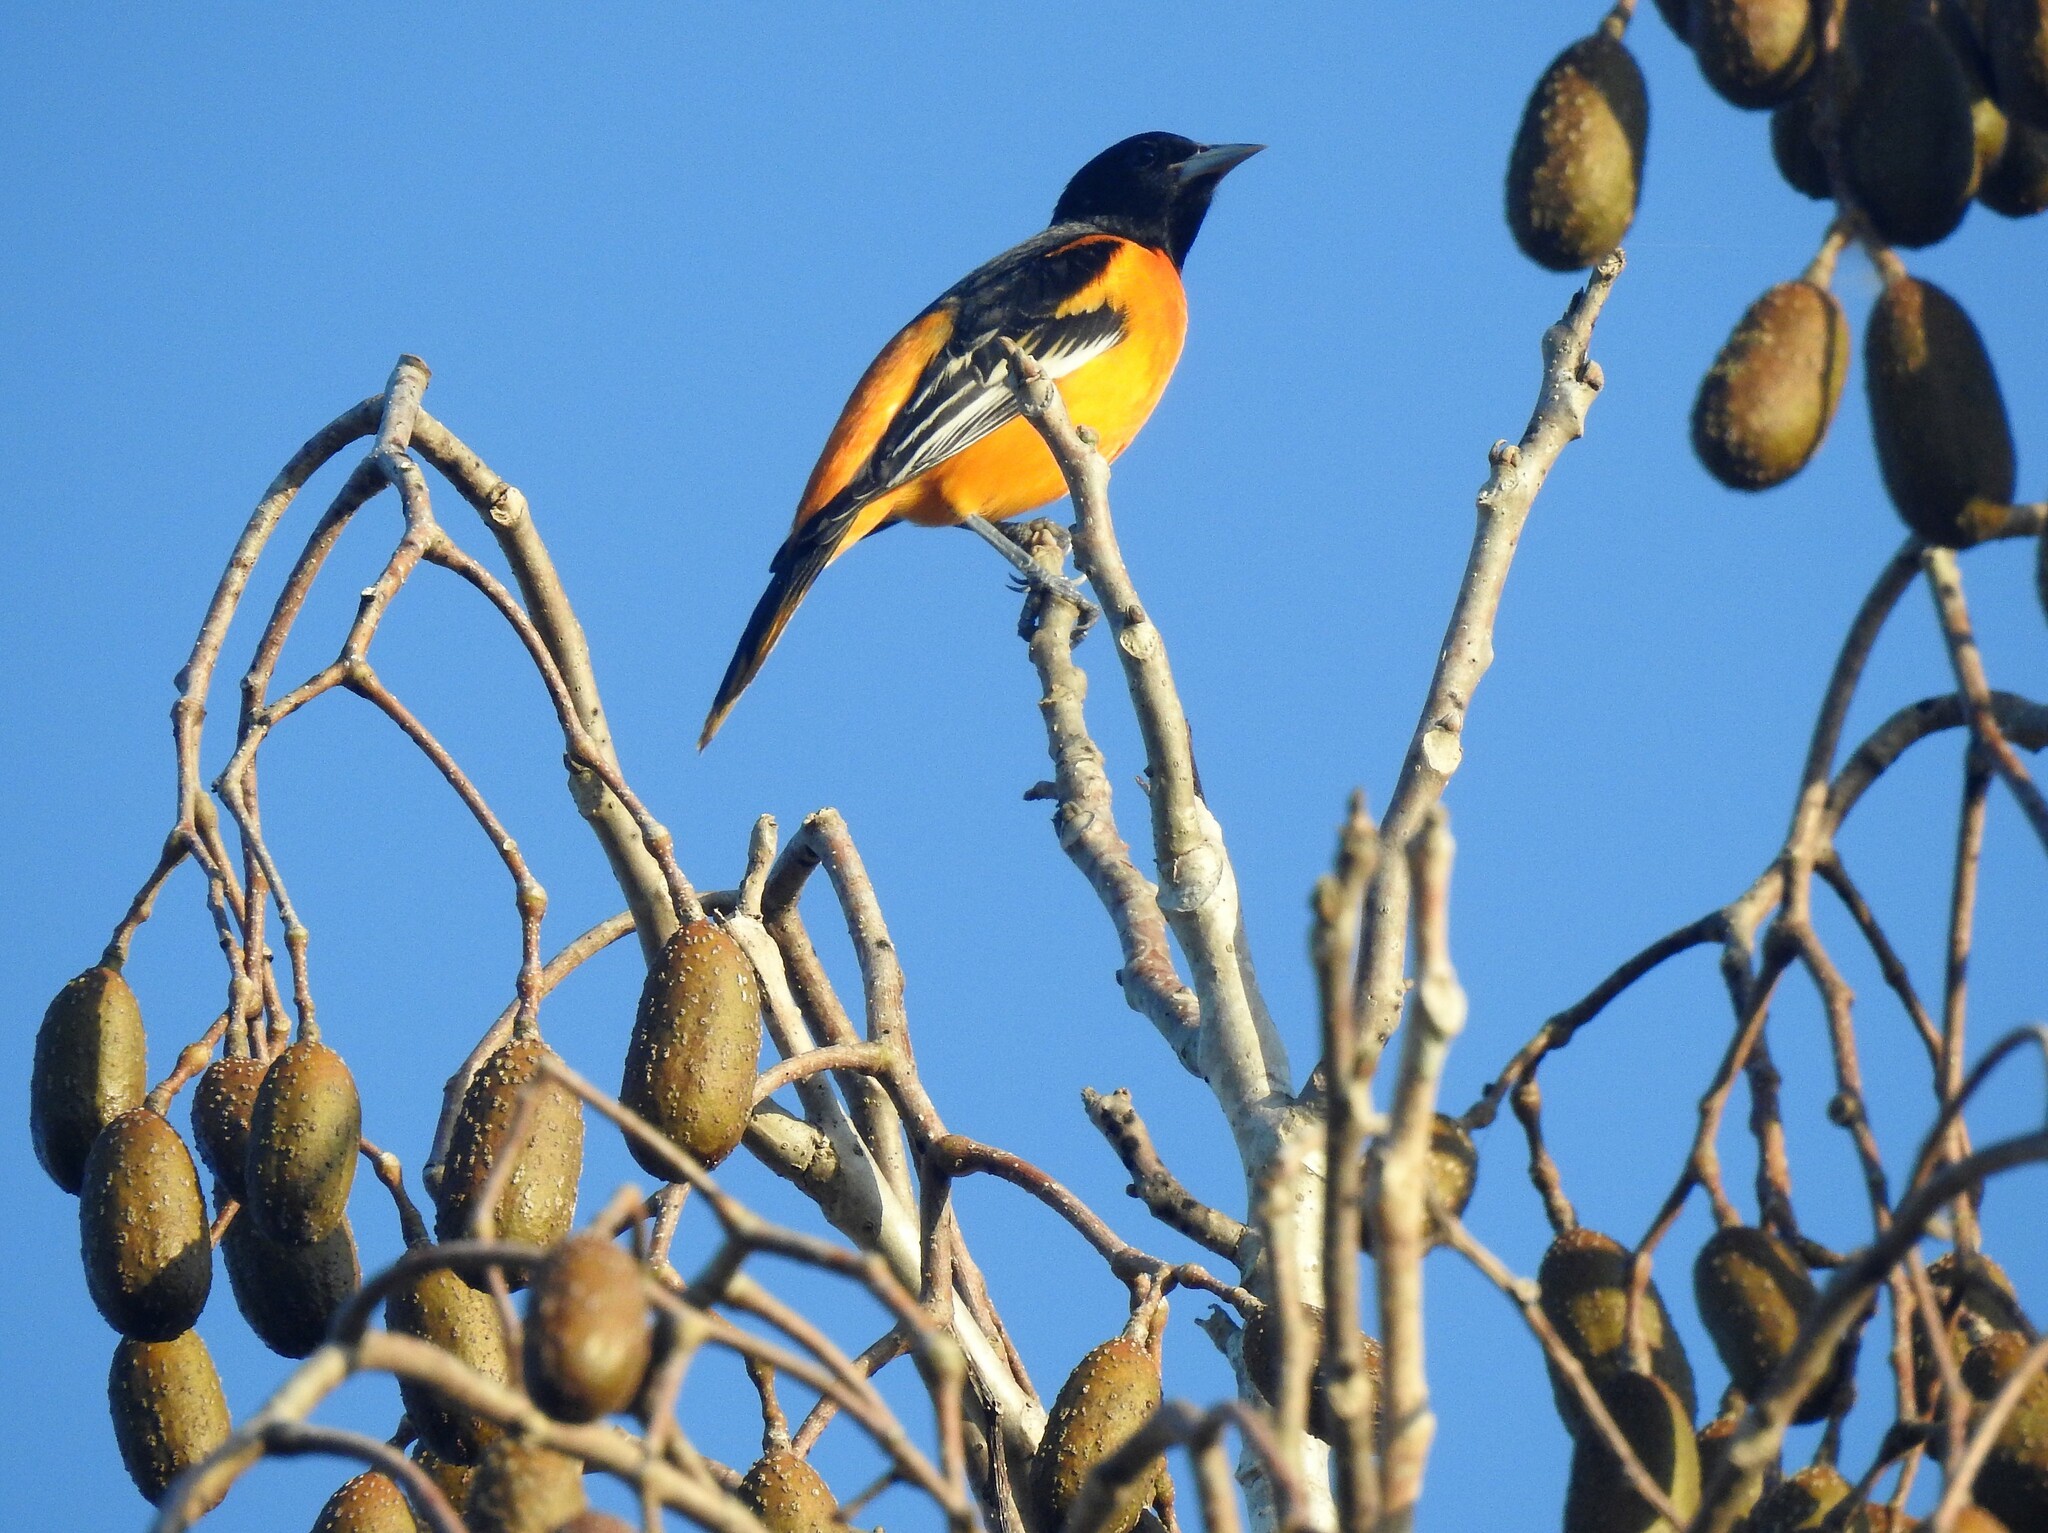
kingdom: Animalia
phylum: Chordata
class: Aves
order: Passeriformes
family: Icteridae
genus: Icterus
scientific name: Icterus galbula
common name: Baltimore oriole
